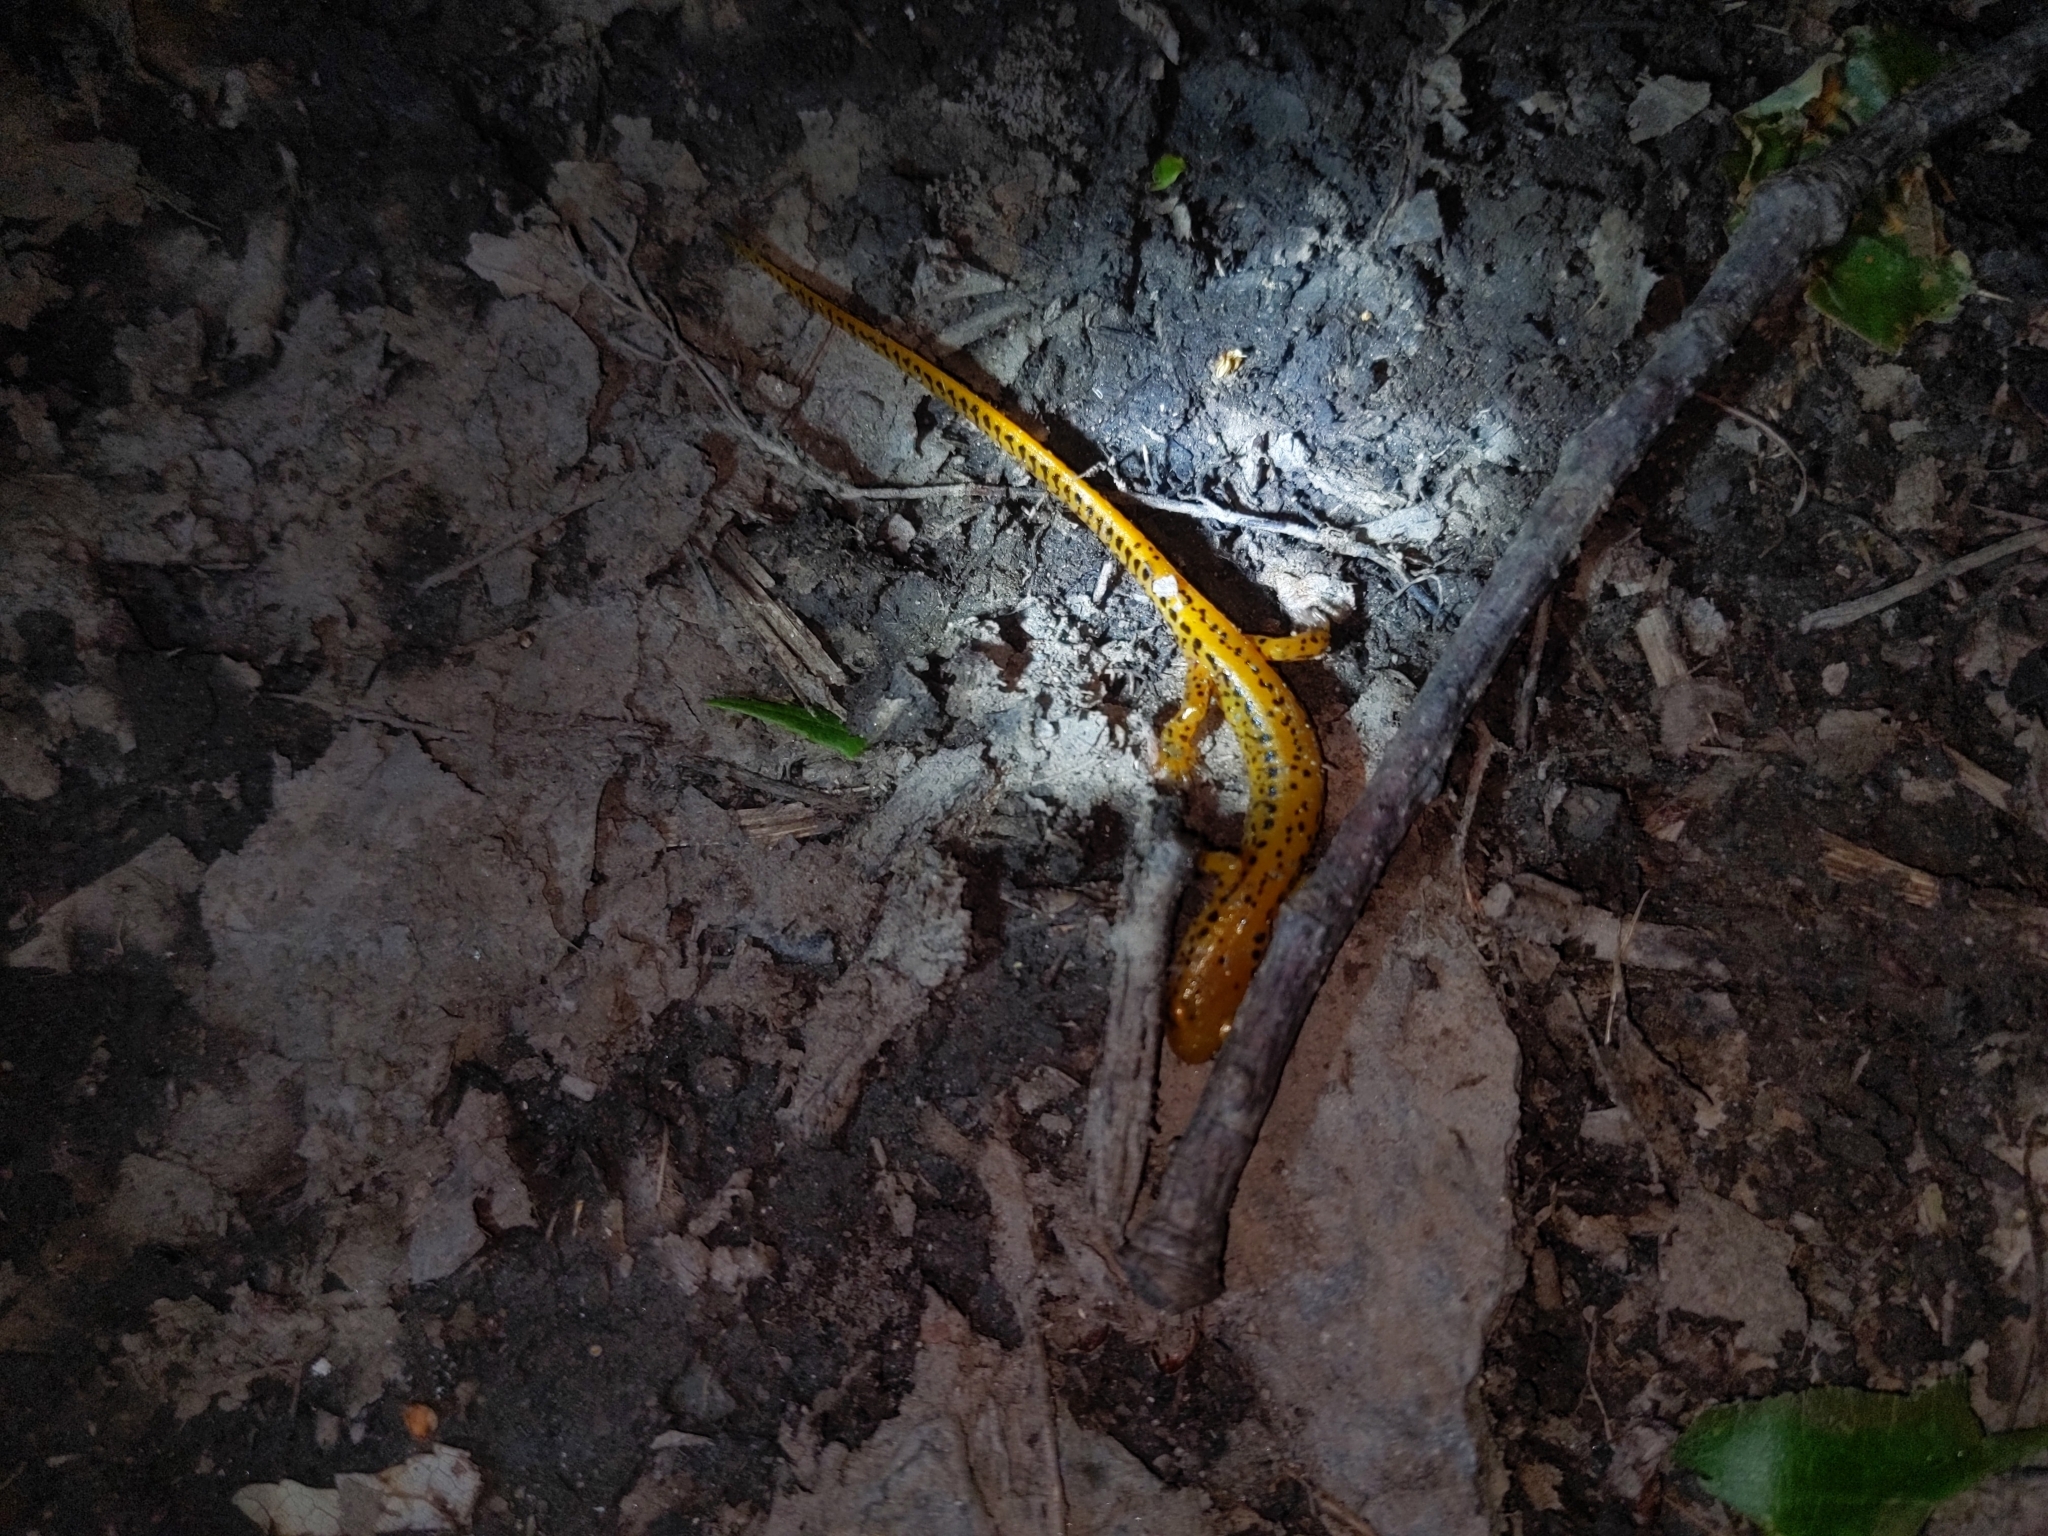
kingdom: Animalia
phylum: Chordata
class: Amphibia
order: Caudata
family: Plethodontidae
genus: Eurycea
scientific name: Eurycea longicauda
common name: Long-tailed salamander
